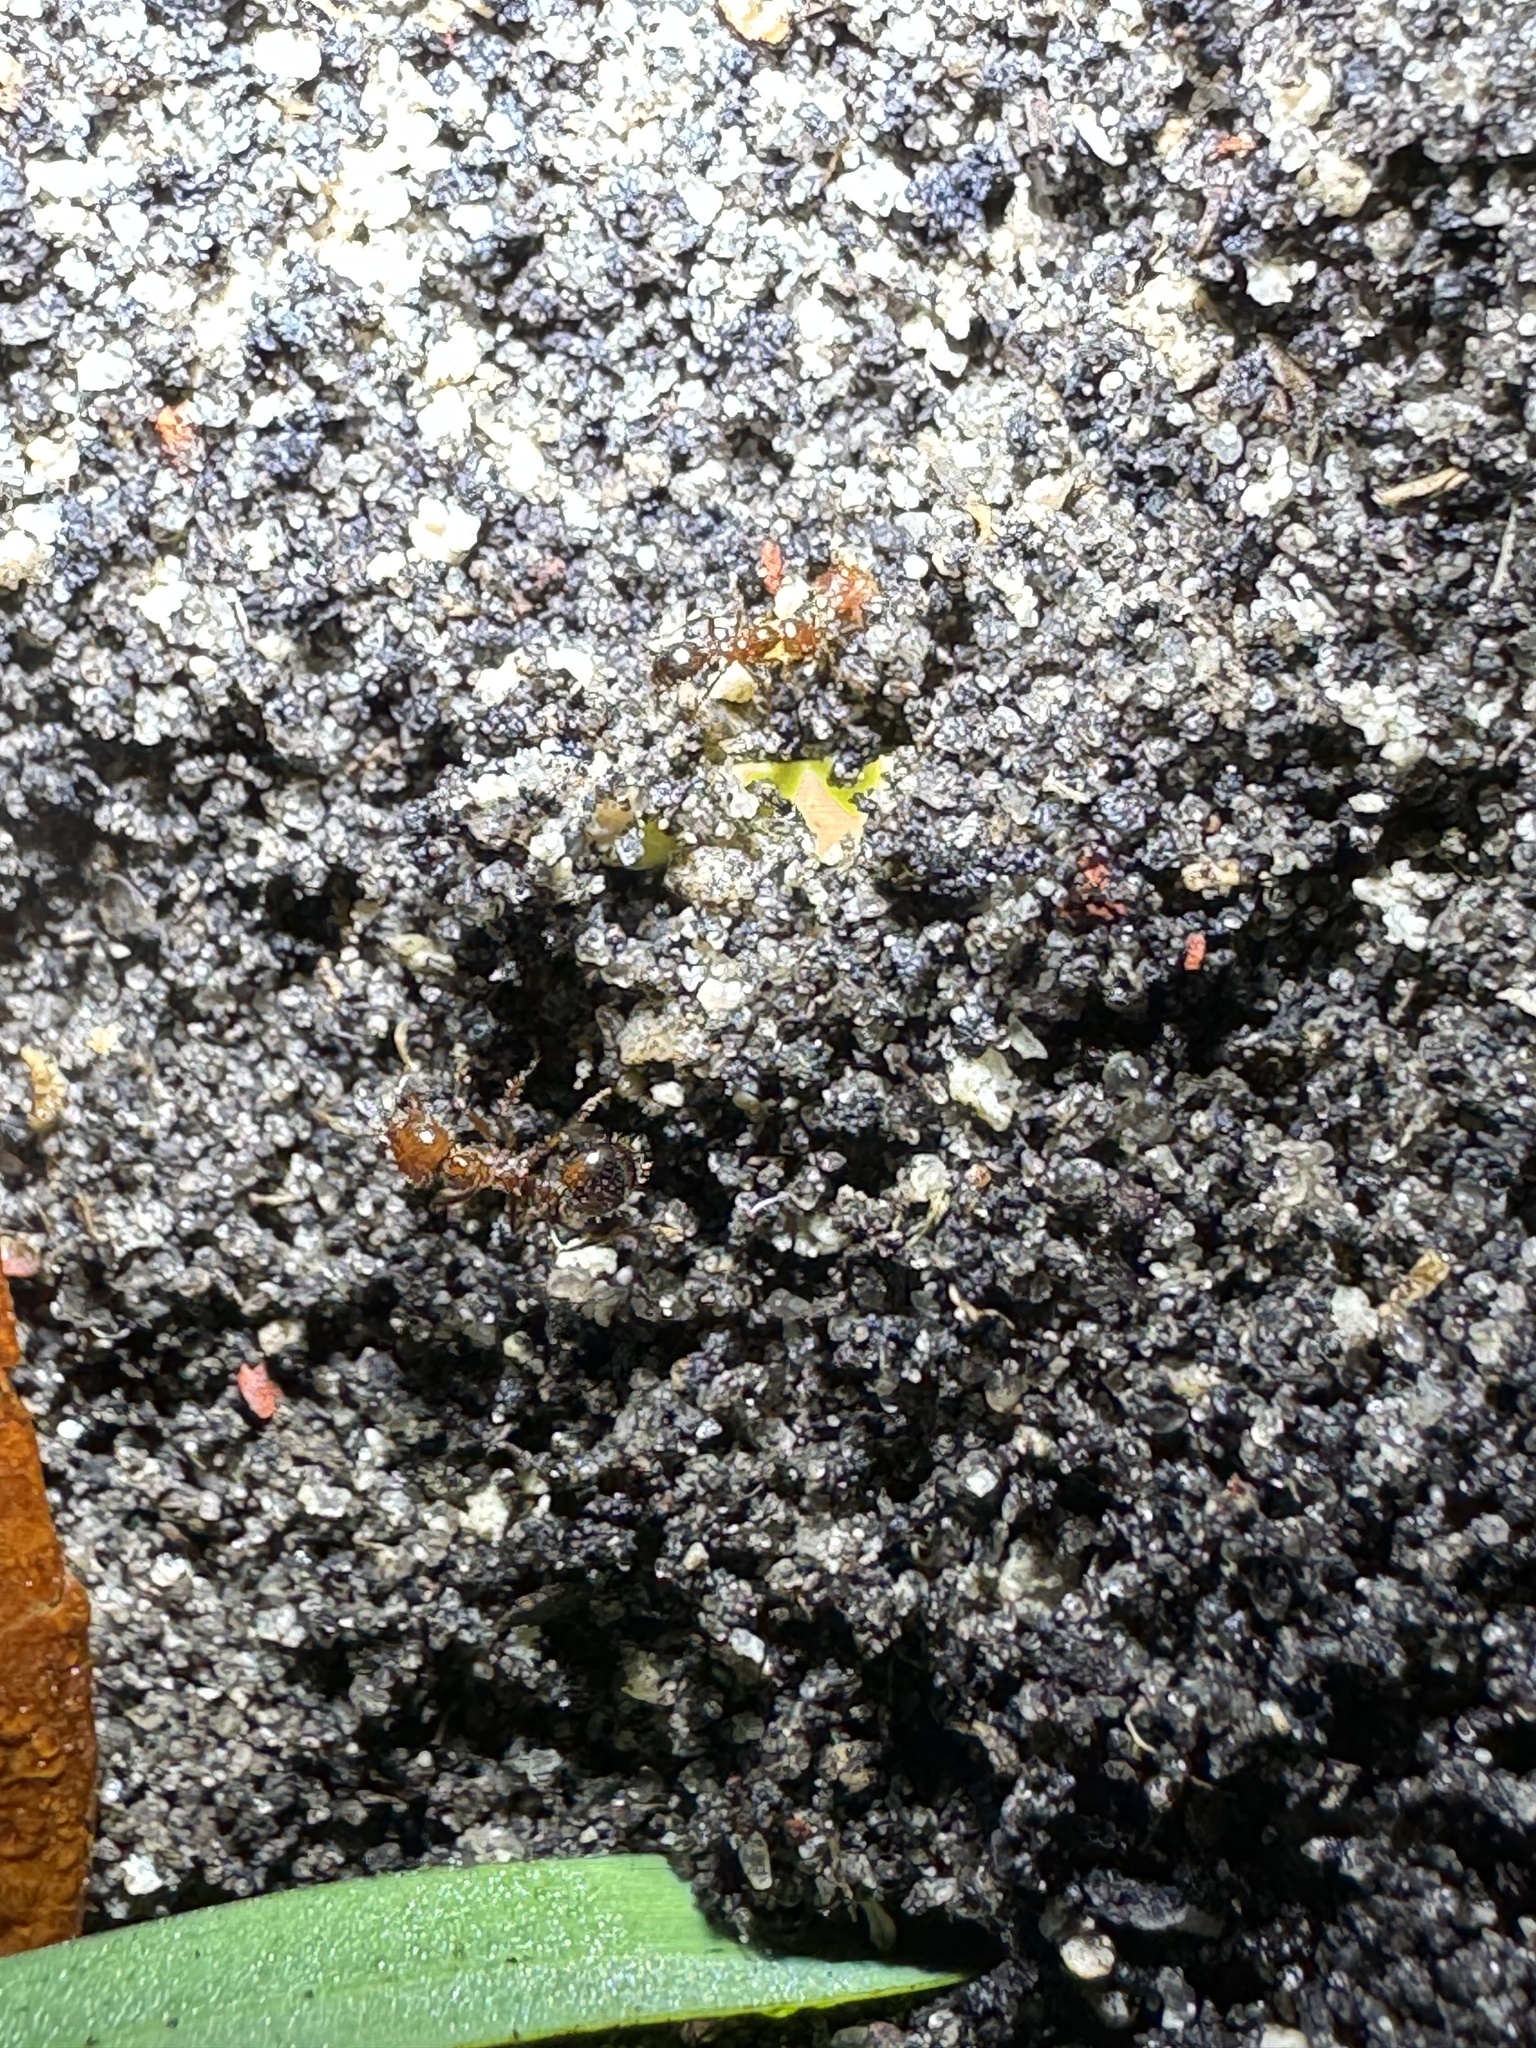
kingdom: Animalia
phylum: Arthropoda
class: Insecta
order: Hymenoptera
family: Formicidae
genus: Solenopsis
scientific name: Solenopsis invicta
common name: Red imported fire ant
